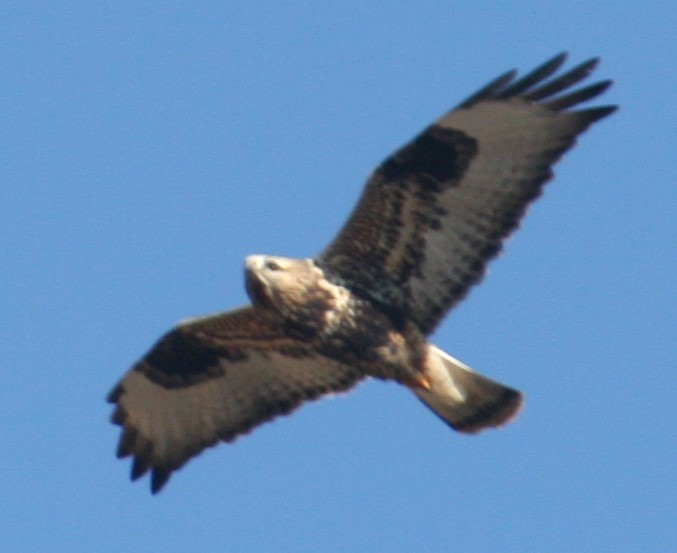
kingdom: Animalia
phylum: Chordata
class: Aves
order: Accipitriformes
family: Accipitridae
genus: Buteo
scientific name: Buteo lagopus
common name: Rough-legged buzzard
